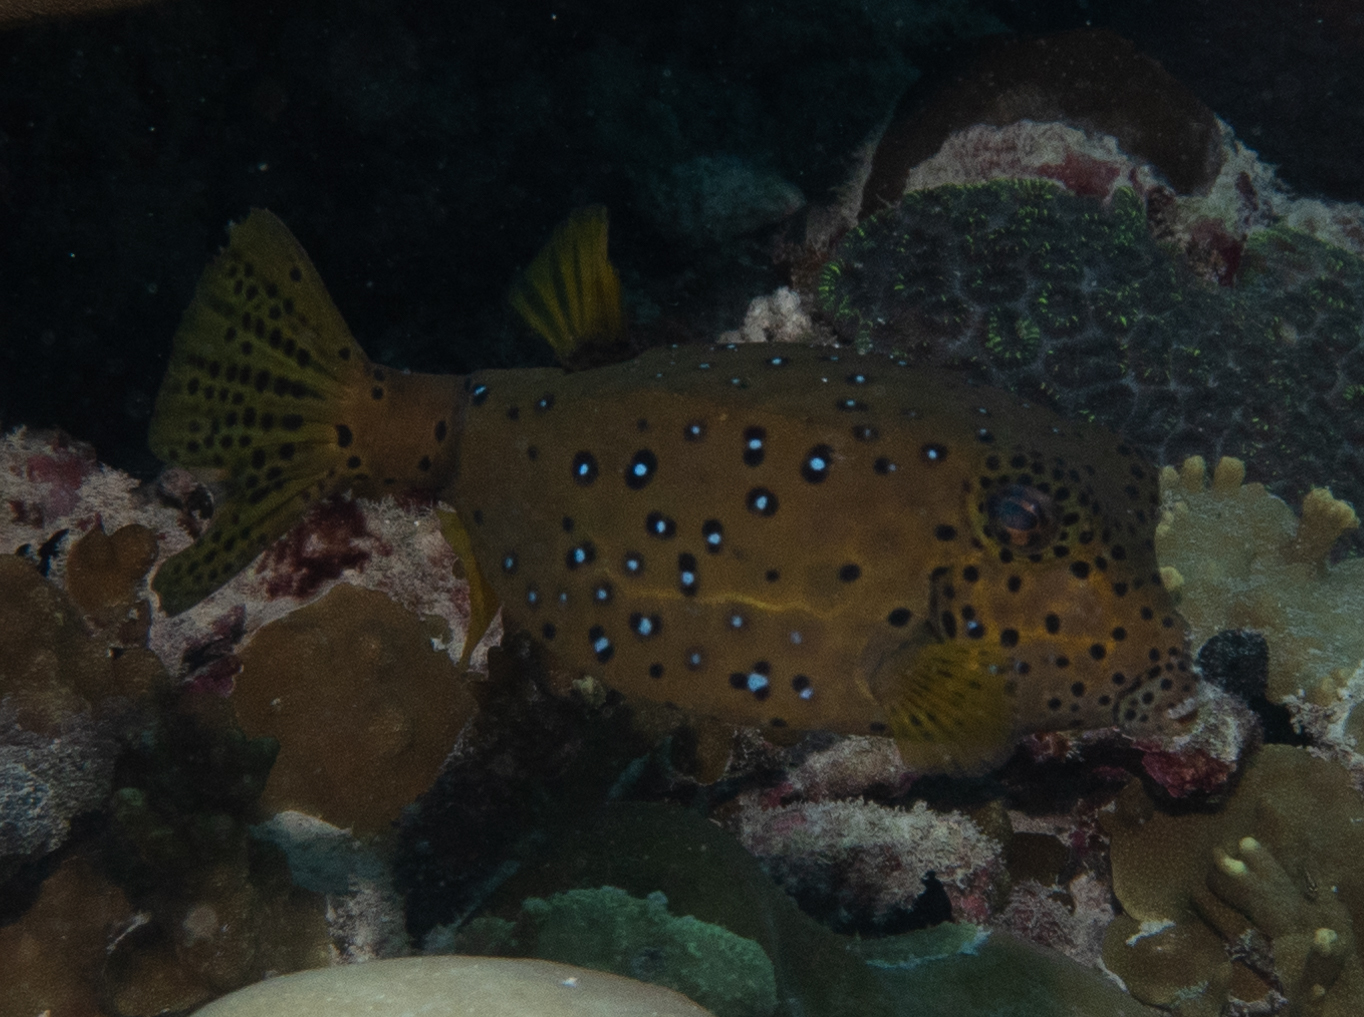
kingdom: Animalia
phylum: Chordata
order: Tetraodontiformes
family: Ostraciidae
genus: Ostracion
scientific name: Ostracion cubicus
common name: Cube trunkfish
